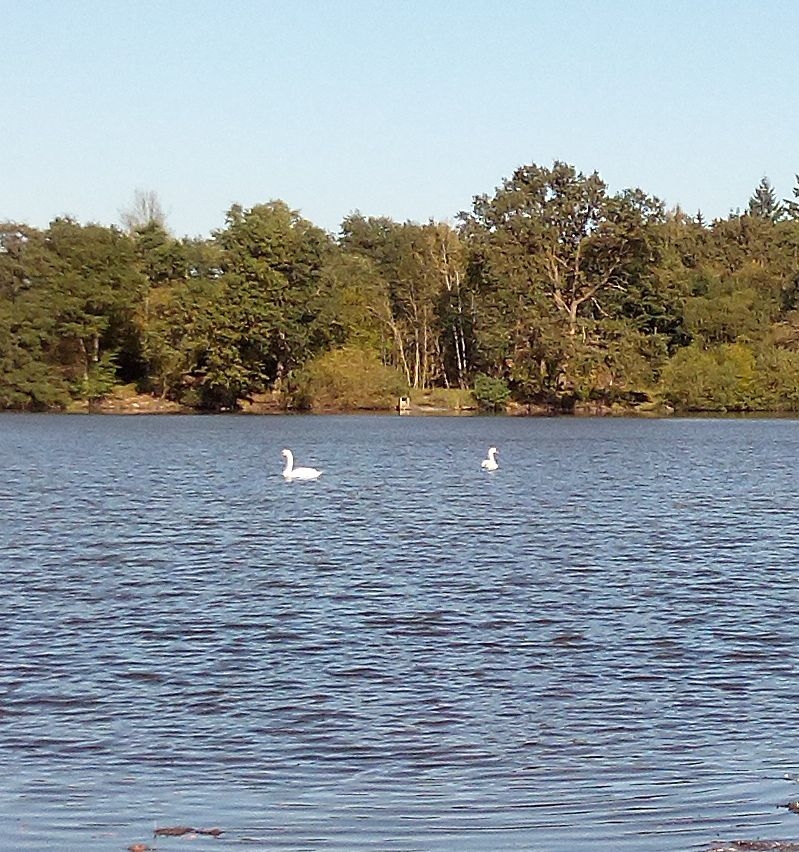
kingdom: Animalia
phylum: Chordata
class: Aves
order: Anseriformes
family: Anatidae
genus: Cygnus
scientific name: Cygnus olor
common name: Mute swan
